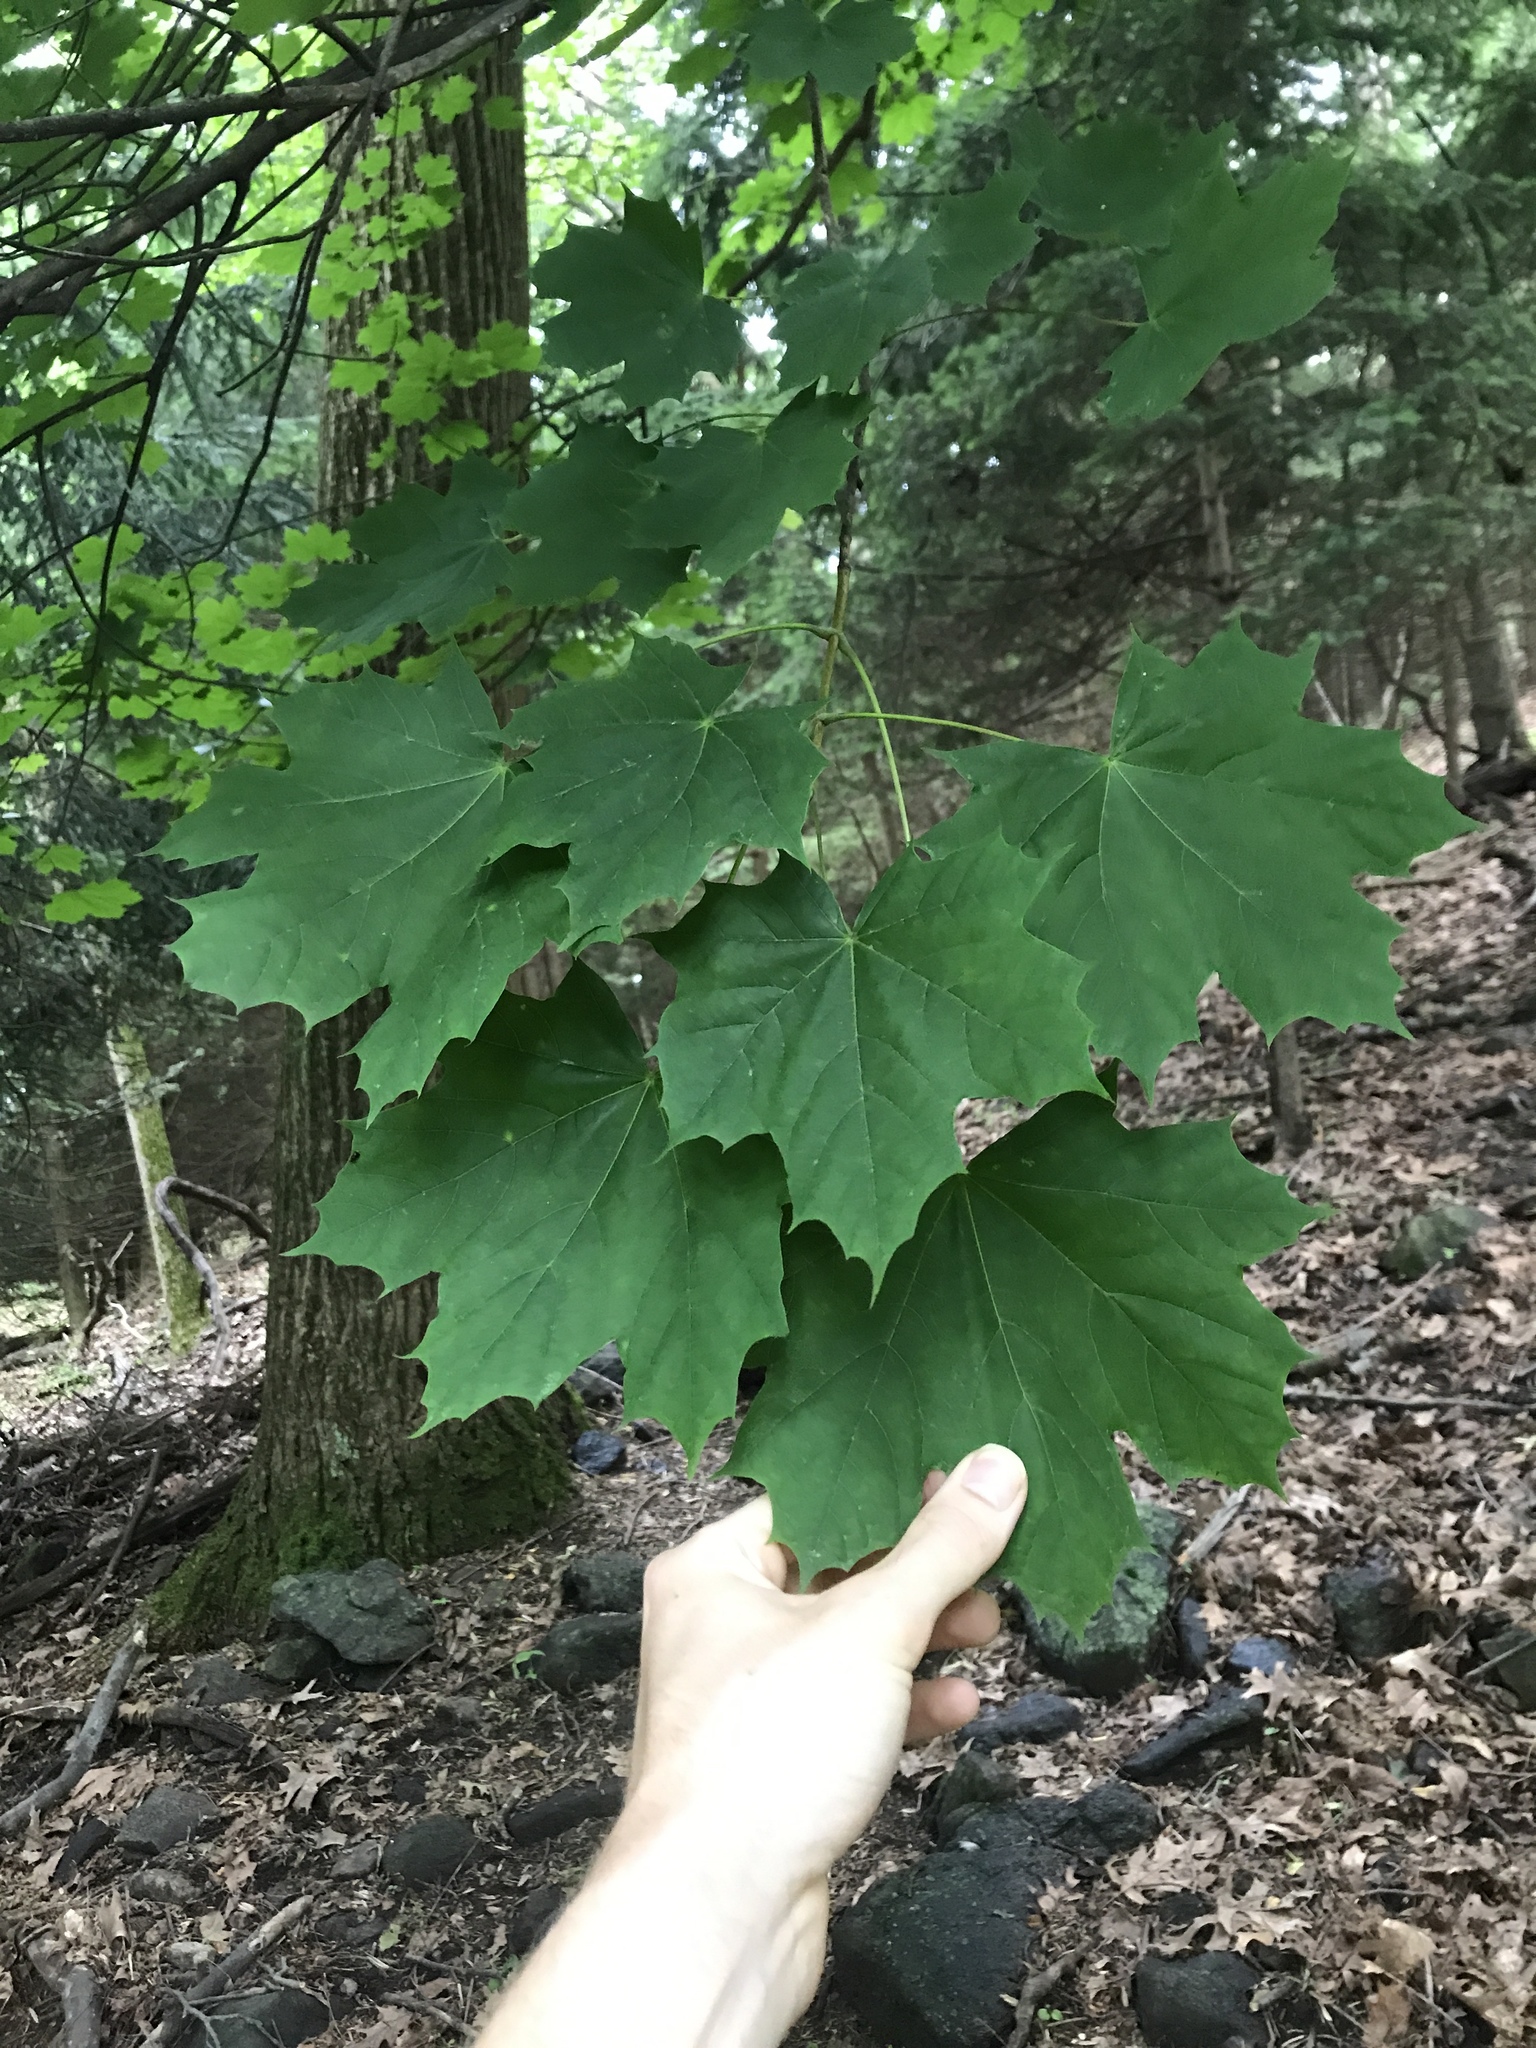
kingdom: Plantae
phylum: Tracheophyta
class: Magnoliopsida
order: Sapindales
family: Sapindaceae
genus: Acer
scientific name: Acer platanoides
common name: Norway maple
